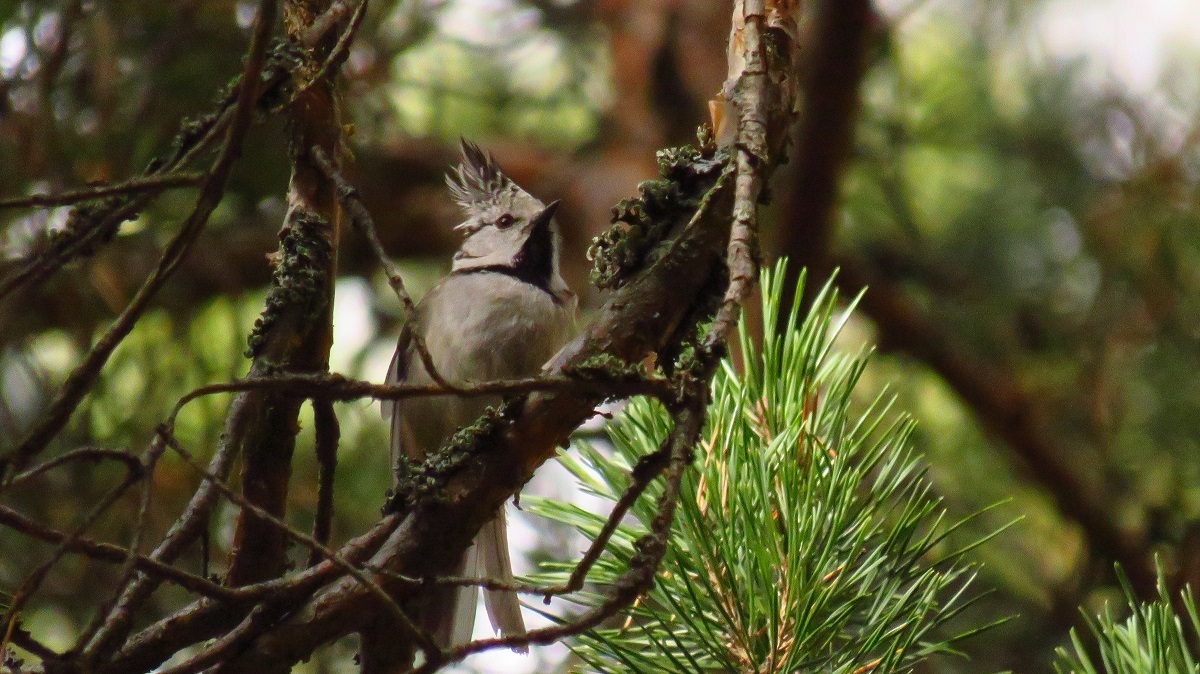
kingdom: Animalia
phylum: Chordata
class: Aves
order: Passeriformes
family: Paridae
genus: Lophophanes
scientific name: Lophophanes cristatus
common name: European crested tit
